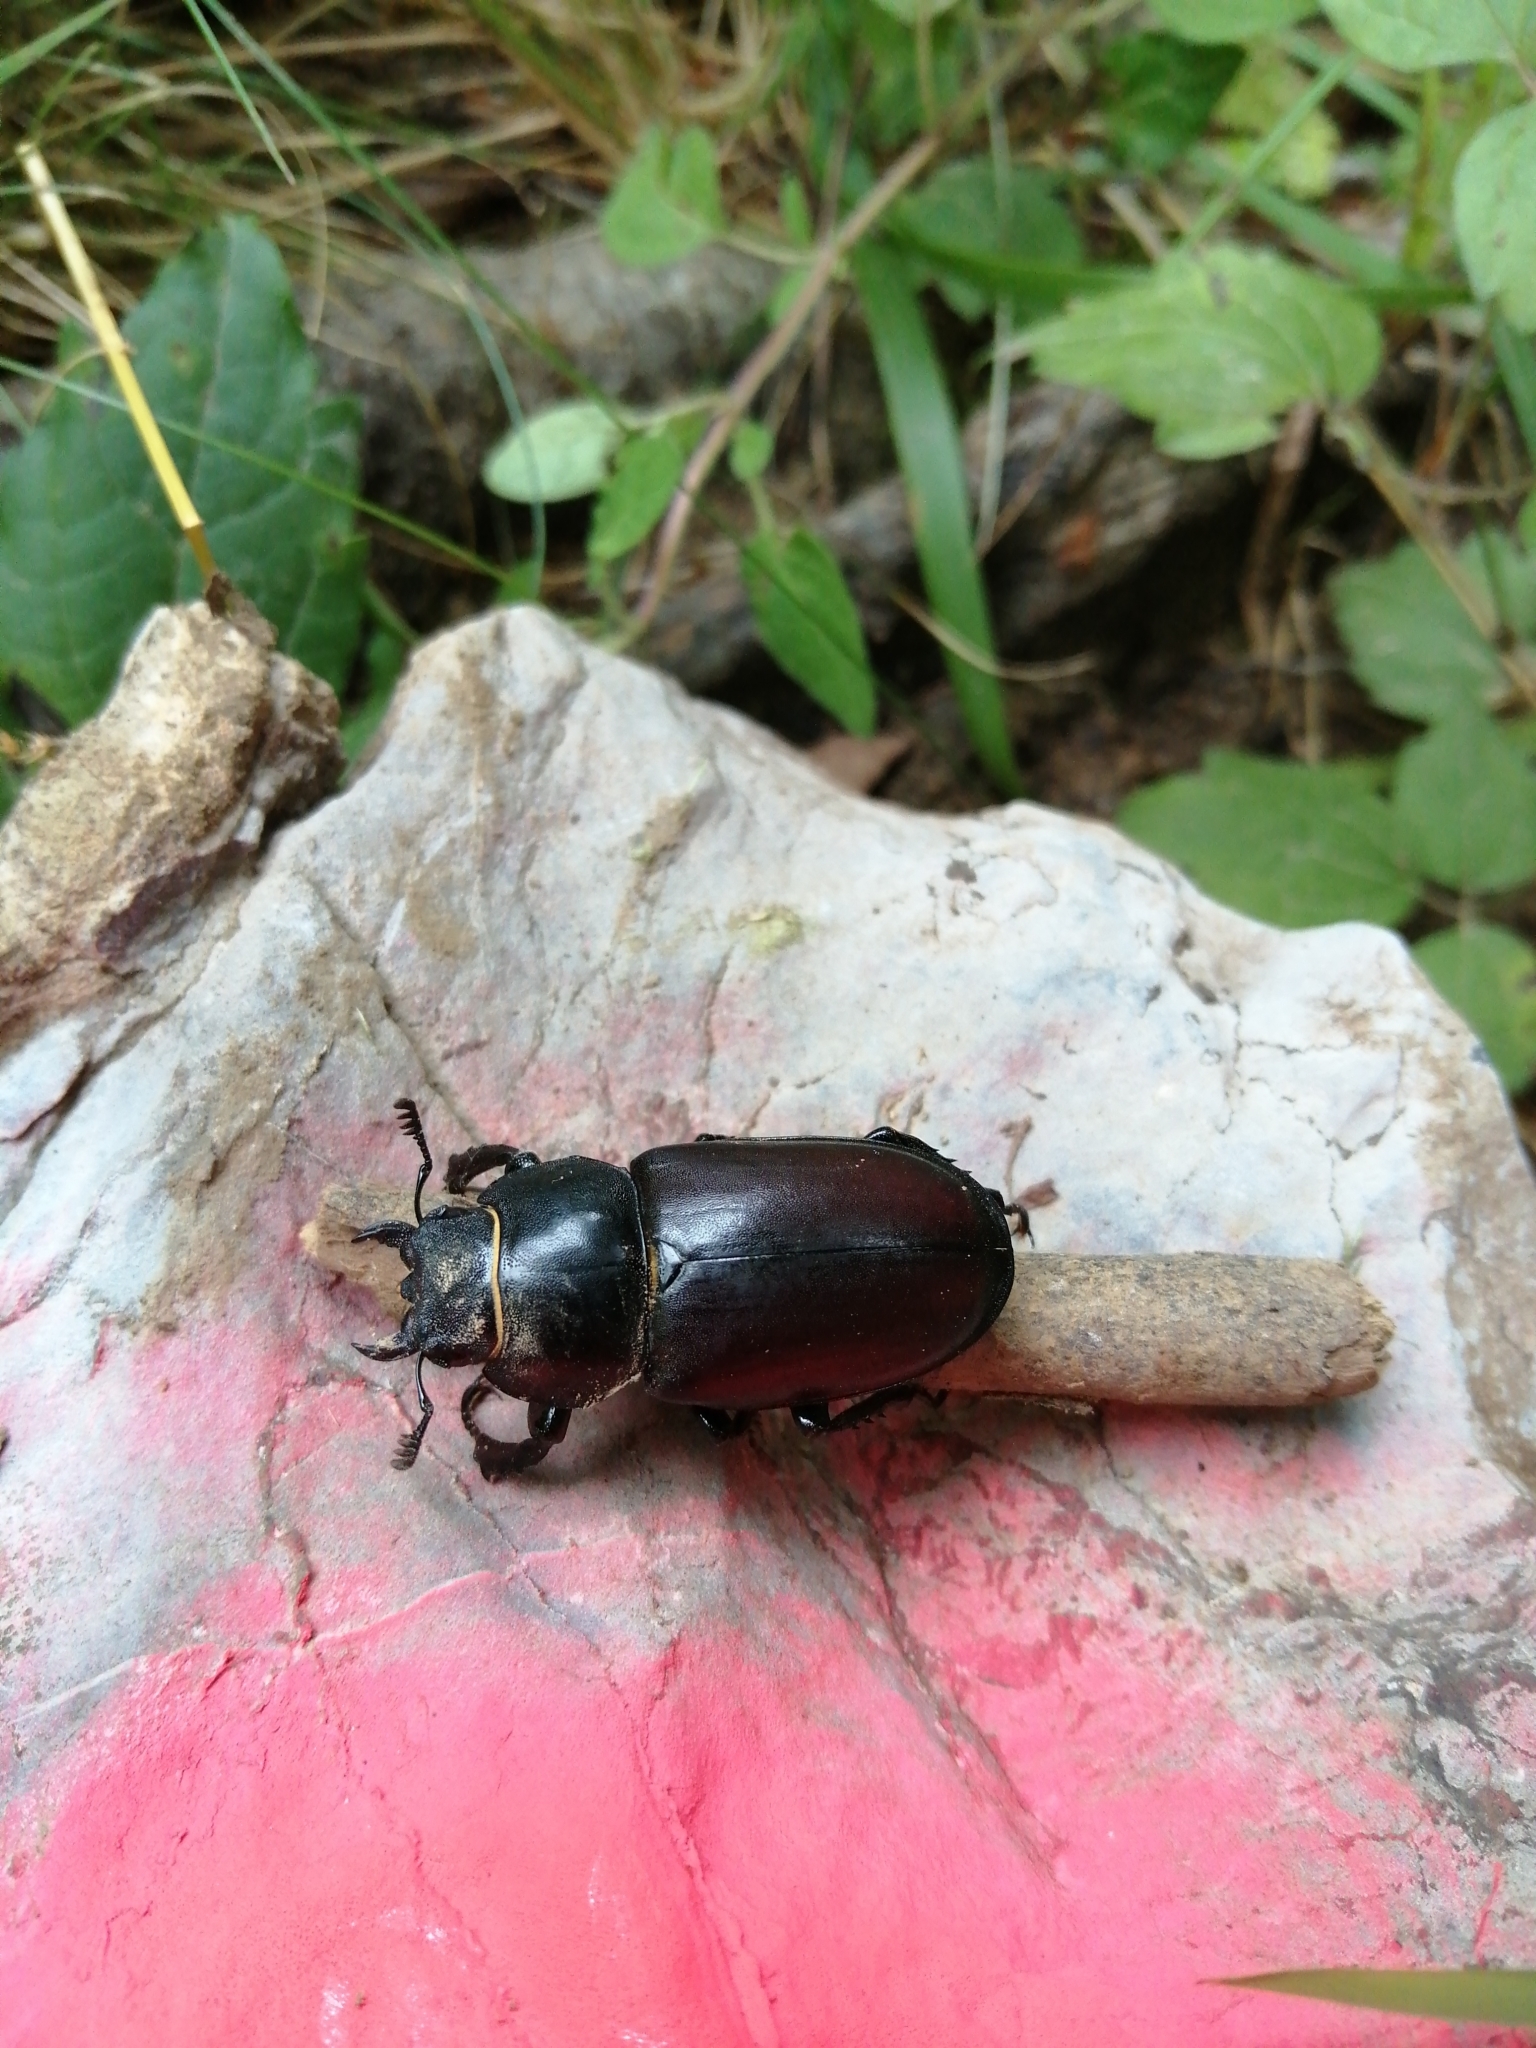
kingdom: Animalia
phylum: Arthropoda
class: Insecta
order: Coleoptera
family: Lucanidae
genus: Lucanus
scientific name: Lucanus cervus
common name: Stag beetle
